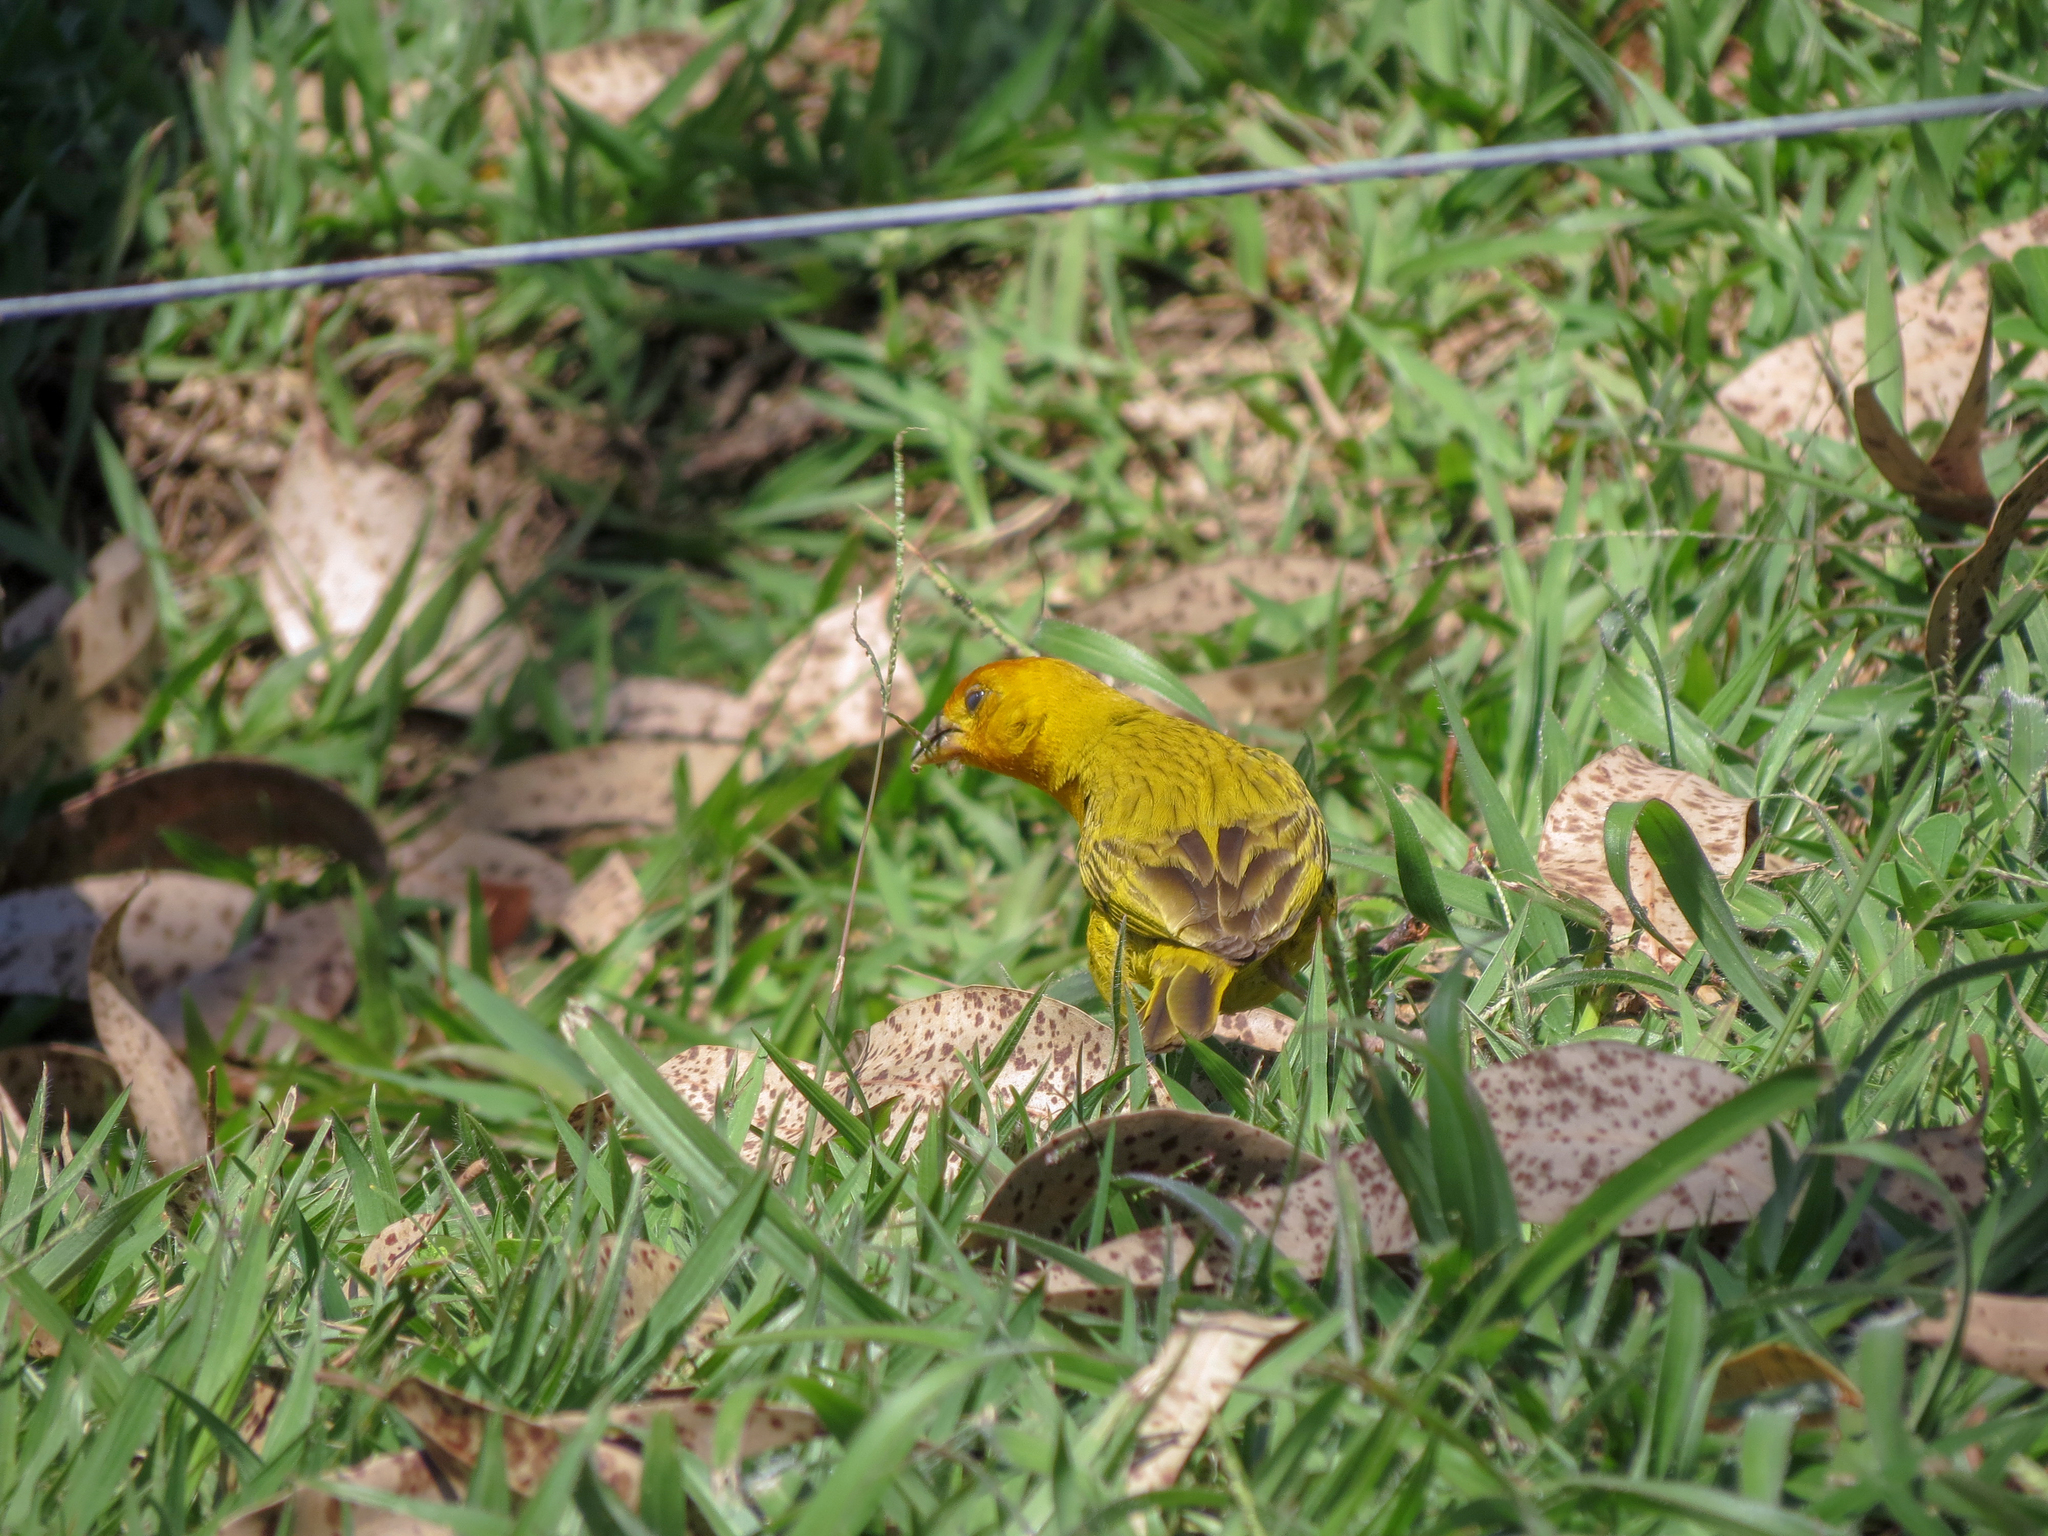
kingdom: Animalia
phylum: Chordata
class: Aves
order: Passeriformes
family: Thraupidae
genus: Sicalis
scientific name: Sicalis flaveola
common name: Saffron finch
